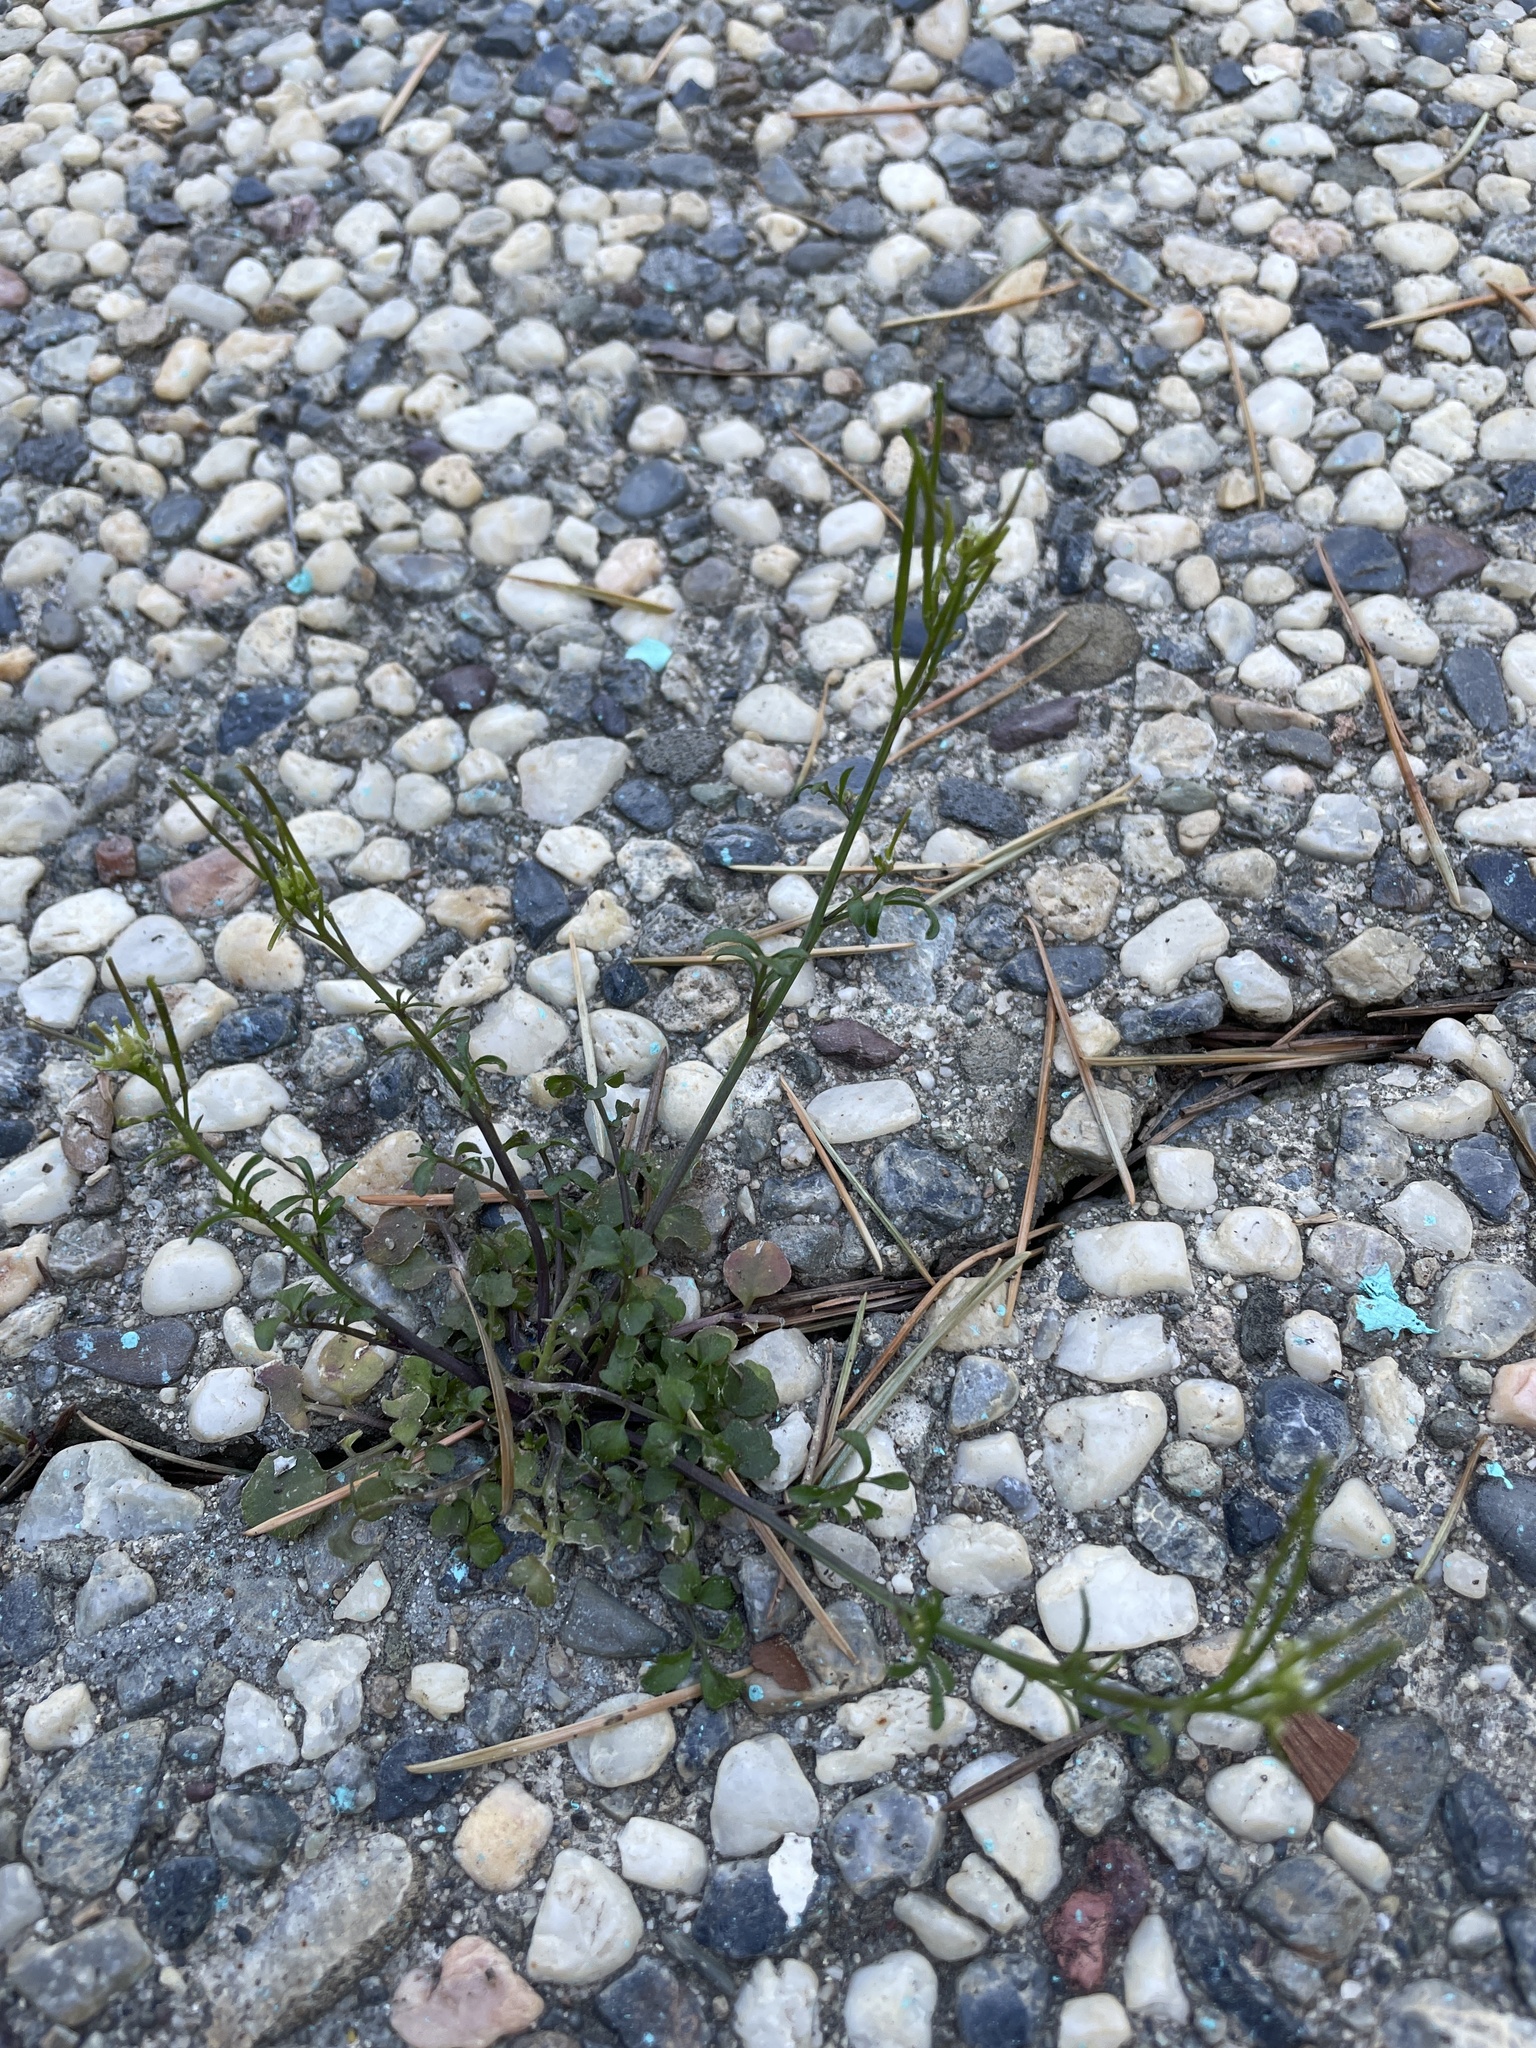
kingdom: Plantae
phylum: Tracheophyta
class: Magnoliopsida
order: Brassicales
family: Brassicaceae
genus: Cardamine
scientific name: Cardamine hirsuta
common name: Hairy bittercress
